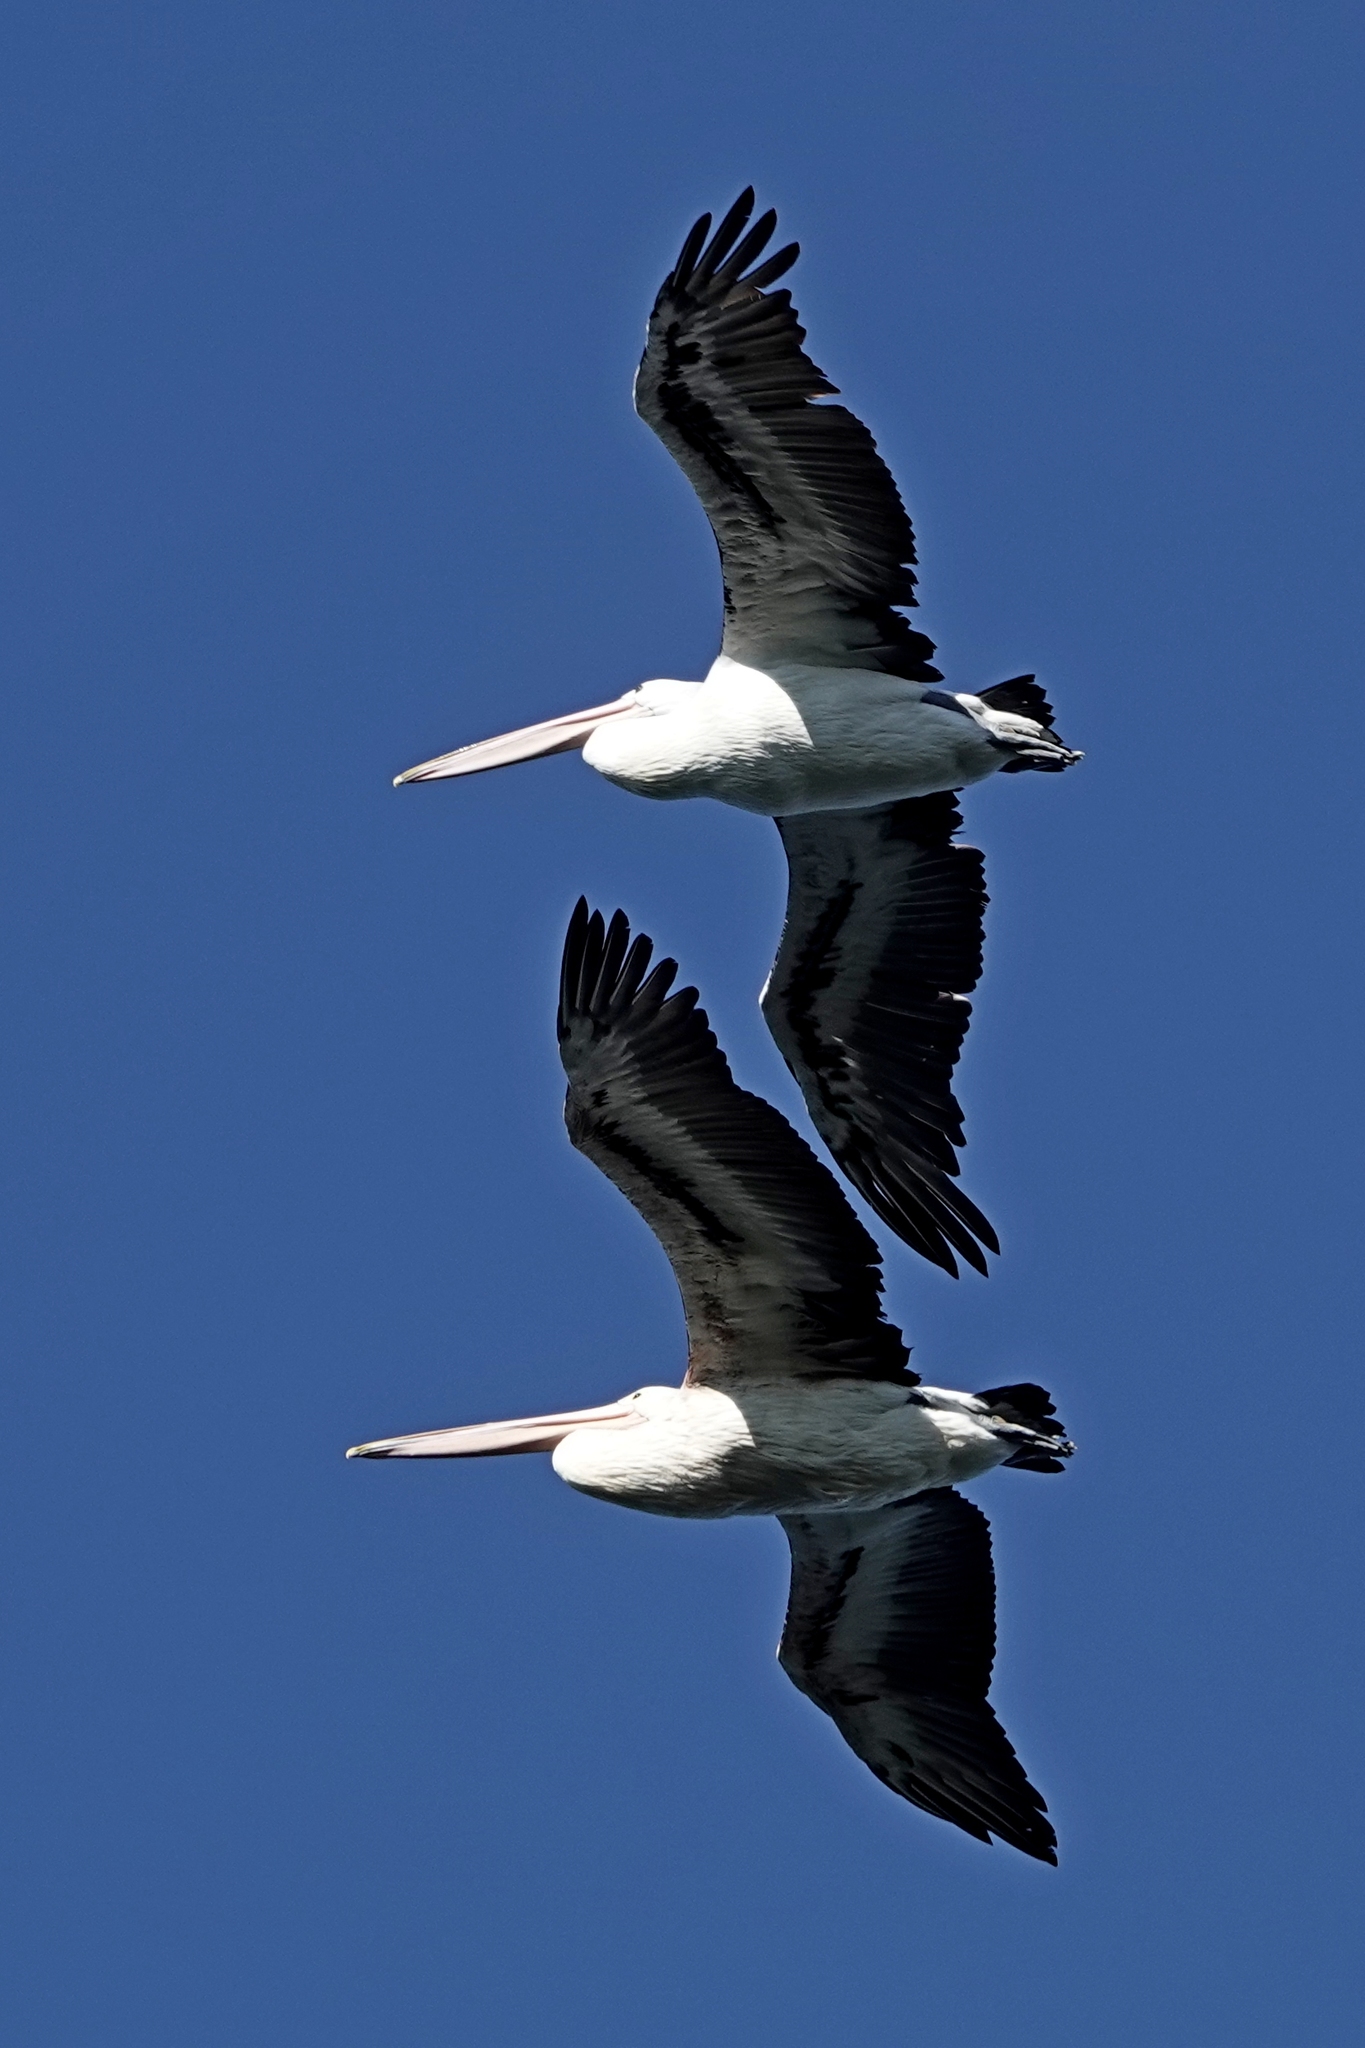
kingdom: Animalia
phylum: Chordata
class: Aves
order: Pelecaniformes
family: Pelecanidae
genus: Pelecanus
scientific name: Pelecanus conspicillatus
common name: Australian pelican
